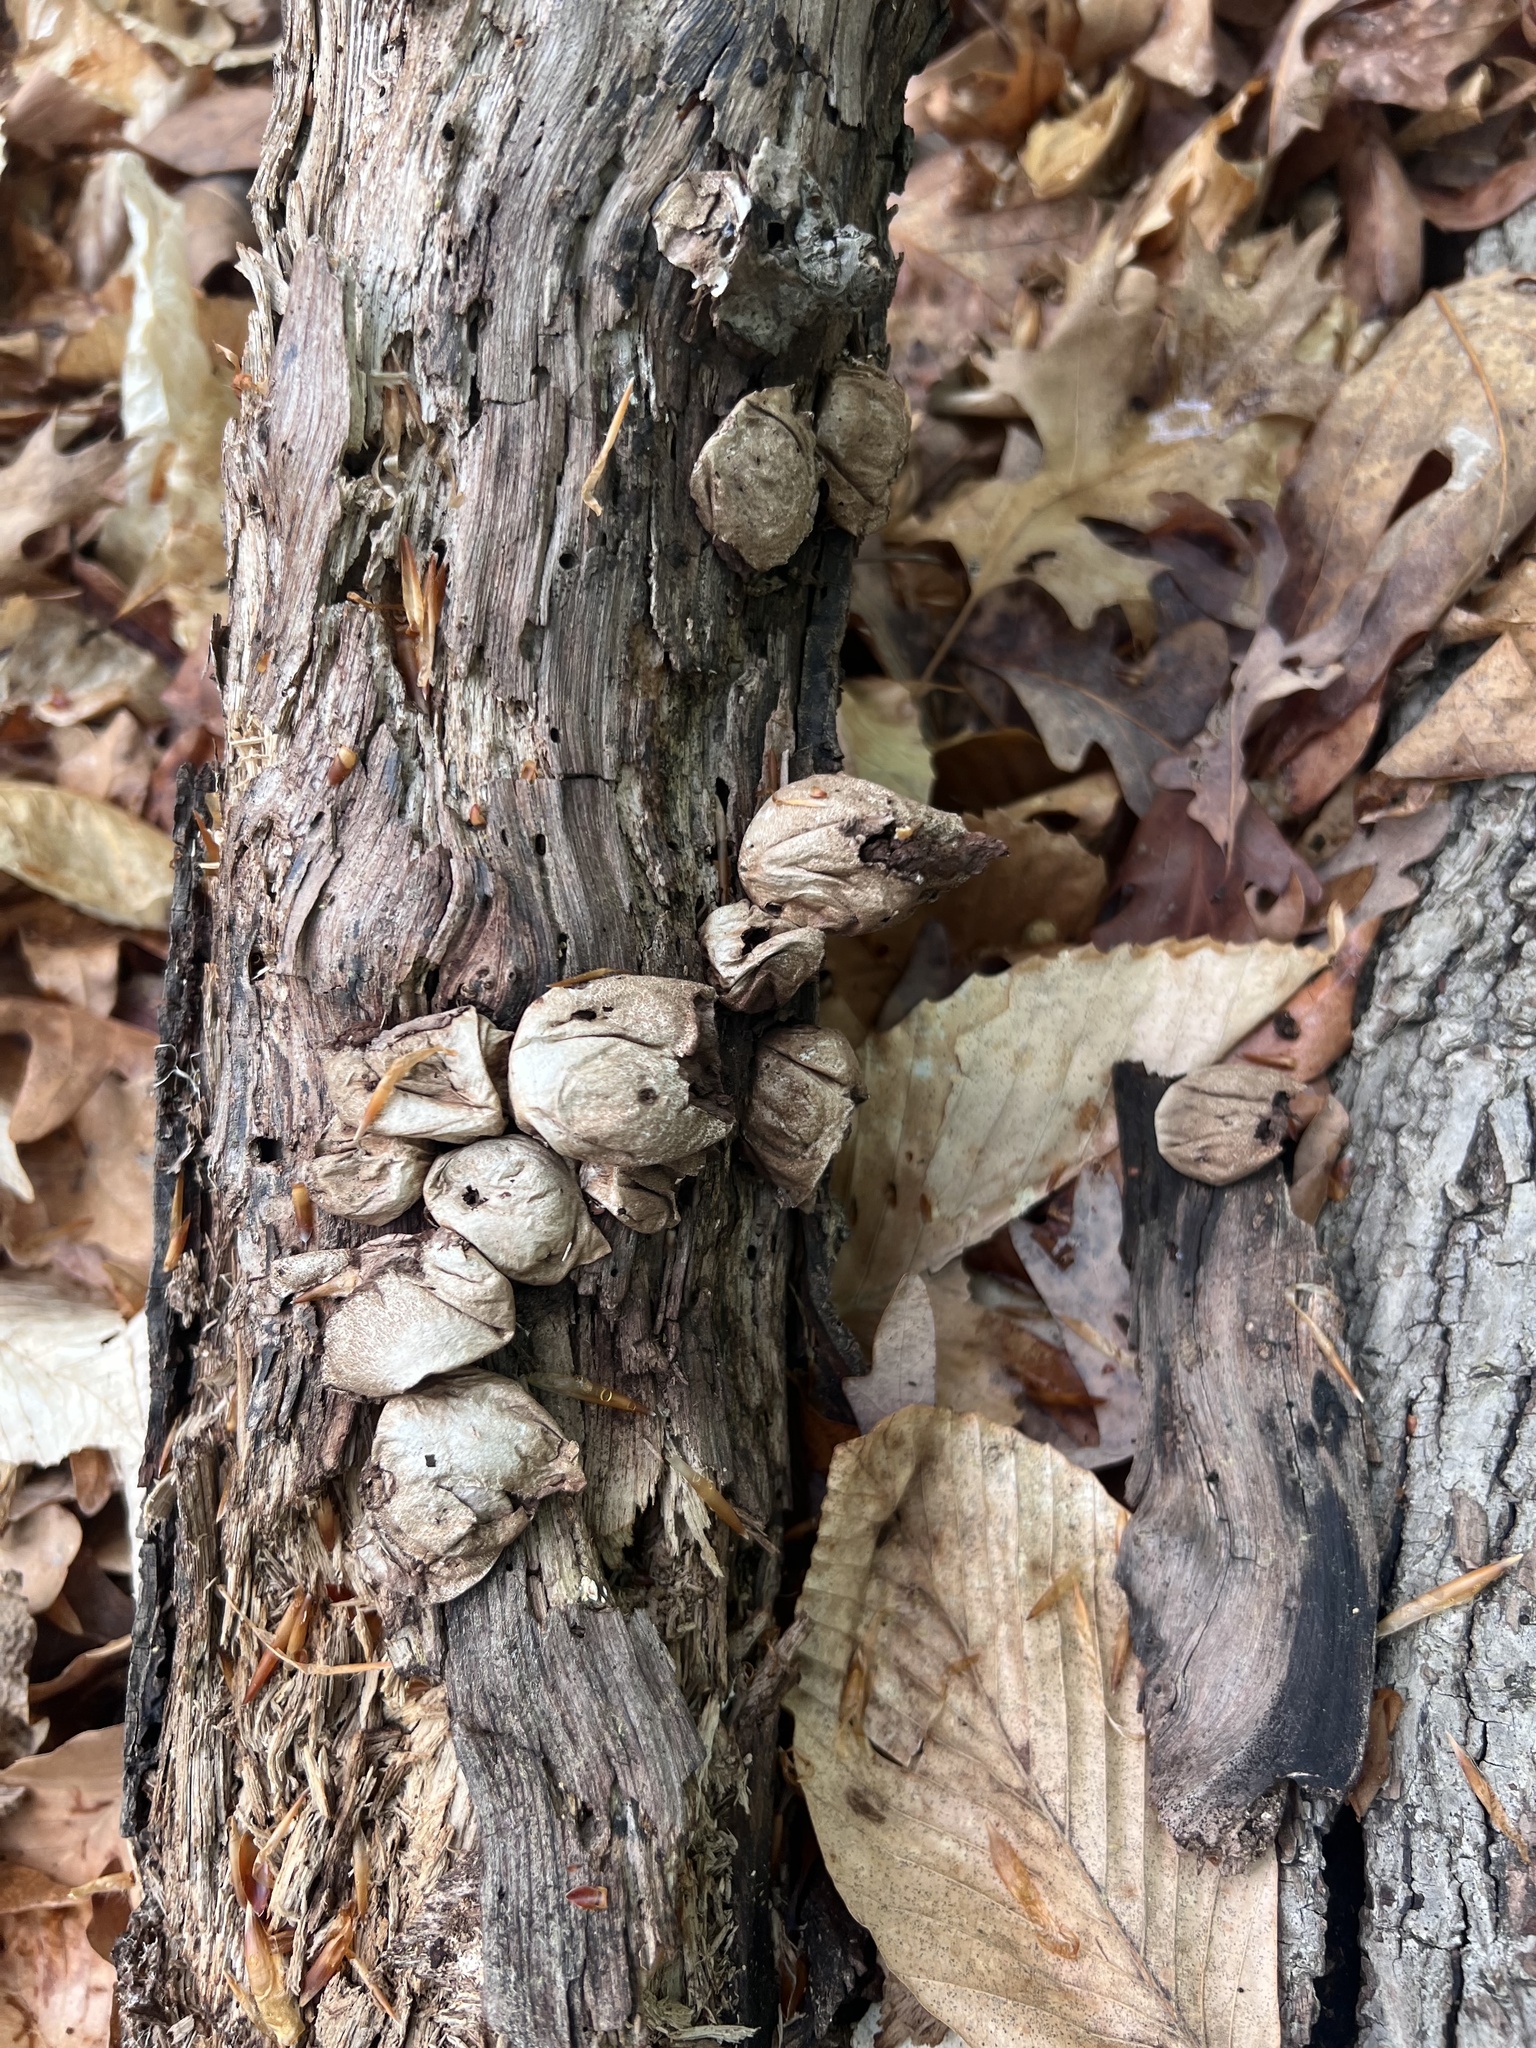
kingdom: Fungi
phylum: Basidiomycota
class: Agaricomycetes
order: Agaricales
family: Lycoperdaceae
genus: Apioperdon
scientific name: Apioperdon pyriforme
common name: Pear-shaped puffball
